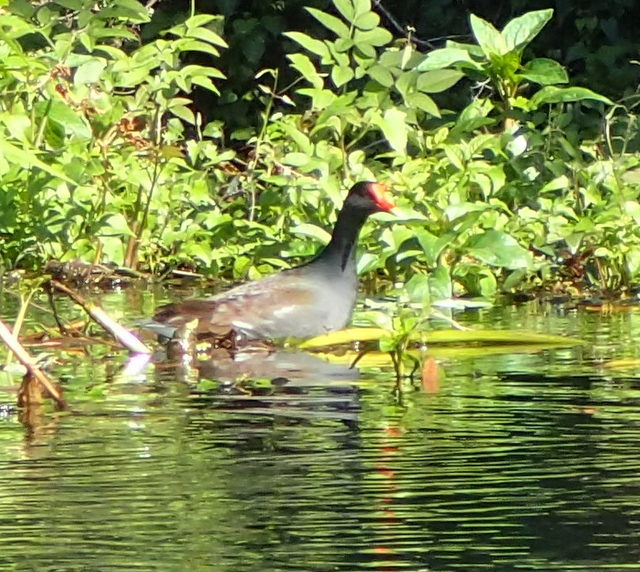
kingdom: Animalia
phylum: Chordata
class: Aves
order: Gruiformes
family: Rallidae
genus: Gallinula
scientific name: Gallinula chloropus
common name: Common moorhen
